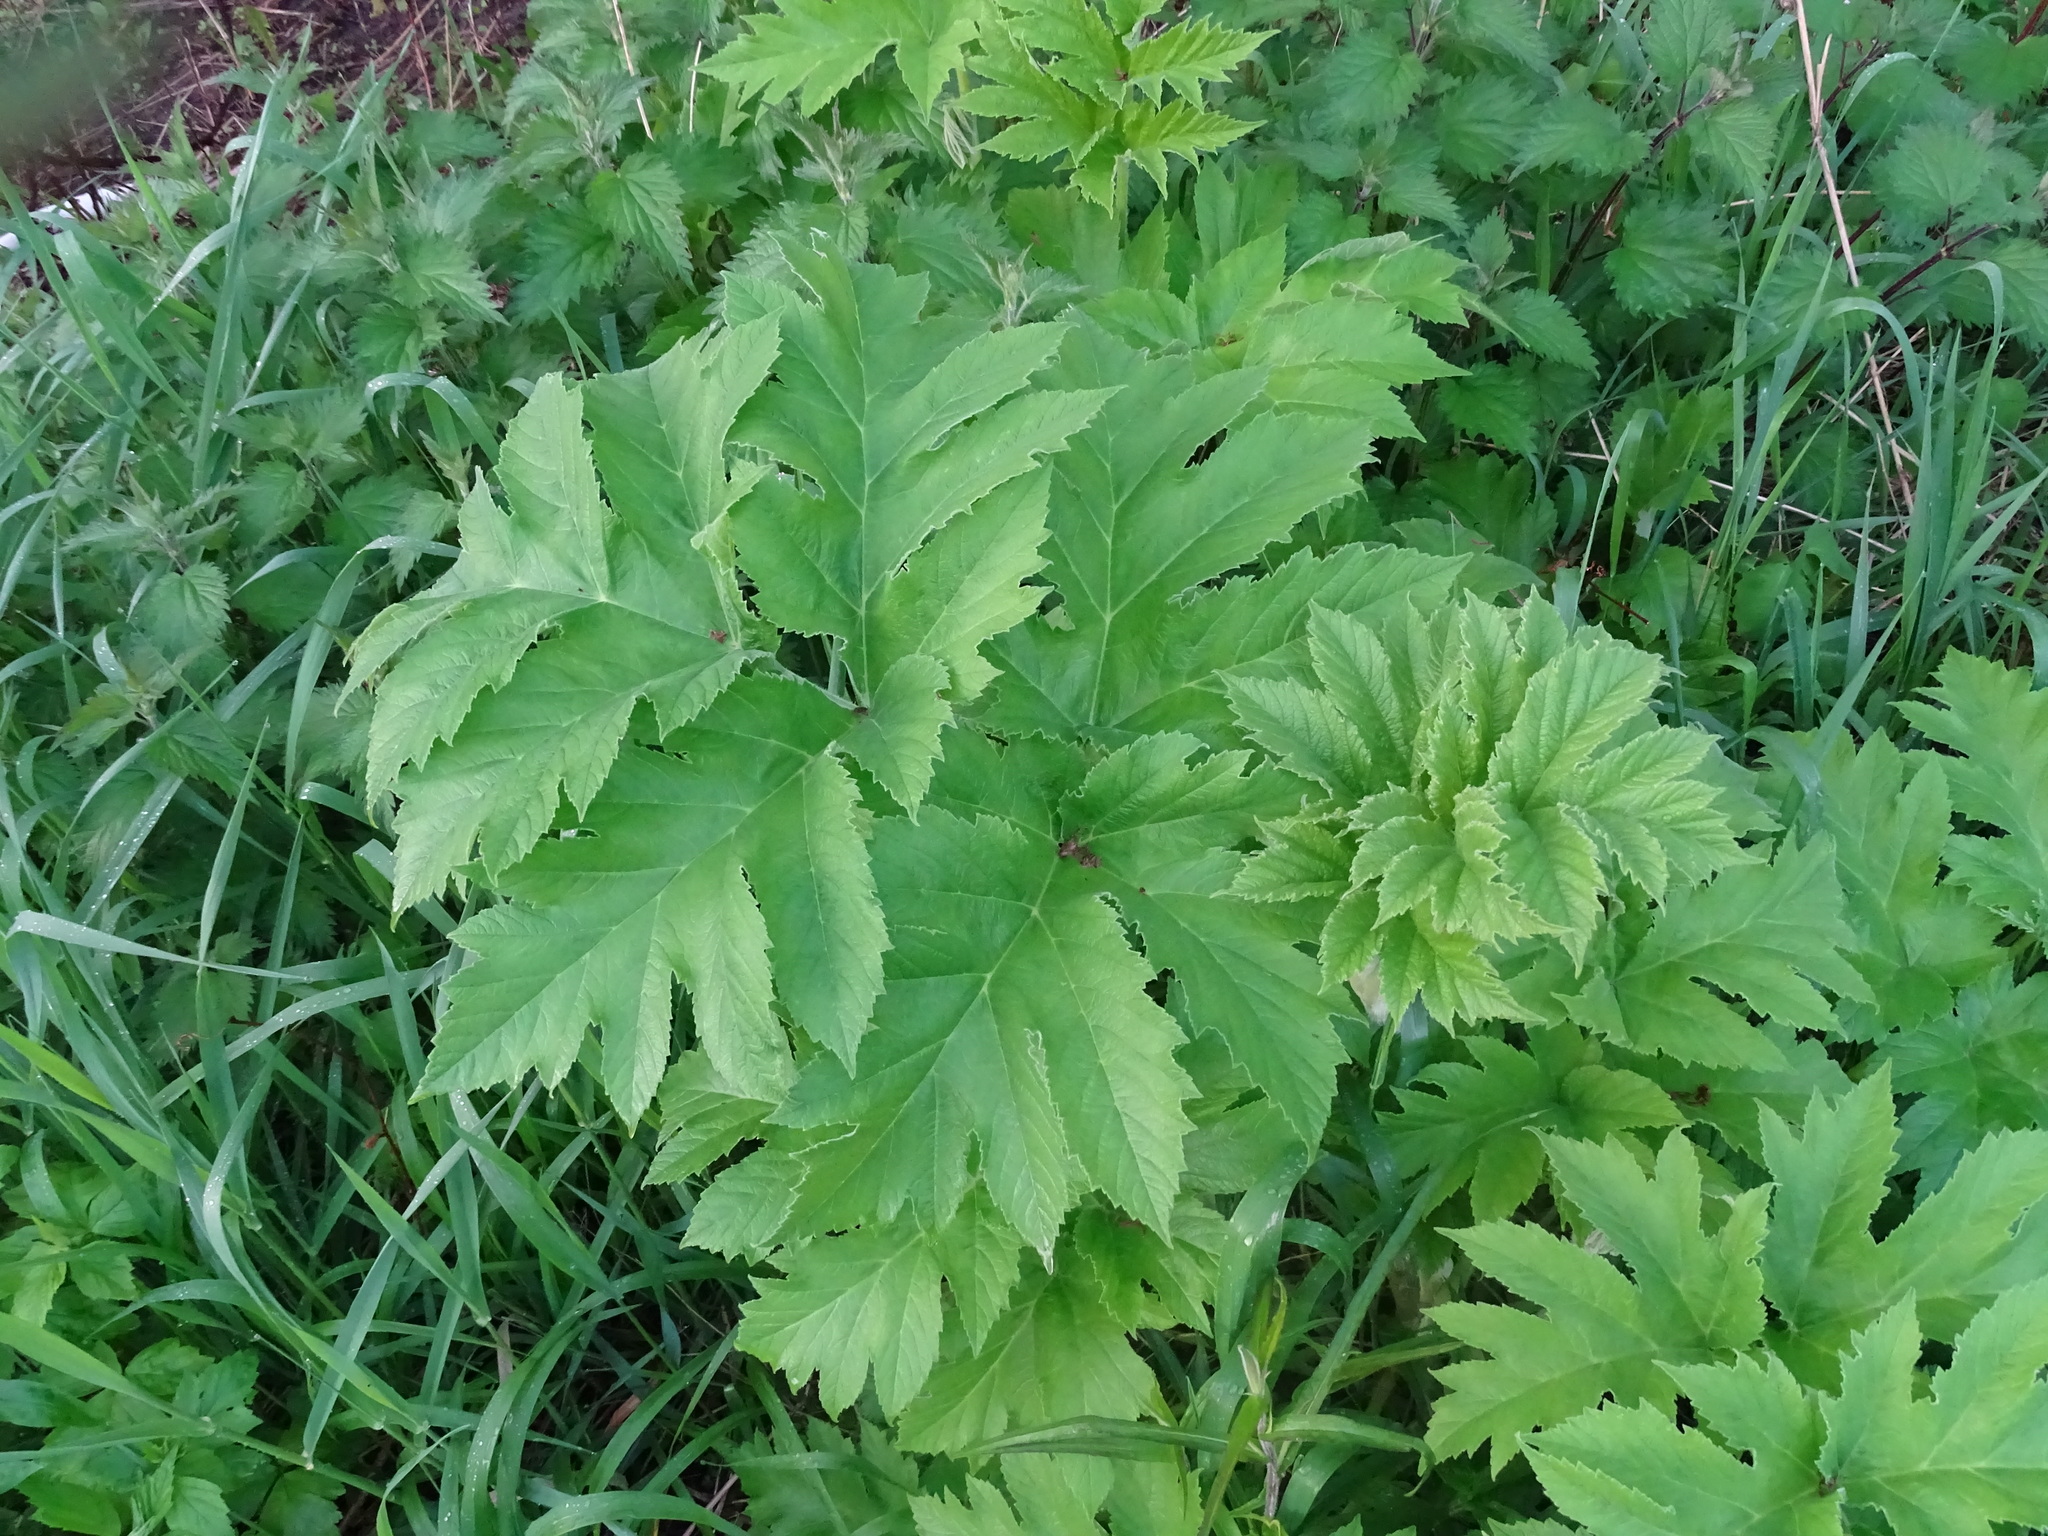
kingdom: Plantae
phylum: Tracheophyta
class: Magnoliopsida
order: Apiales
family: Apiaceae
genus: Heracleum
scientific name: Heracleum maximum
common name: American cow parsnip
